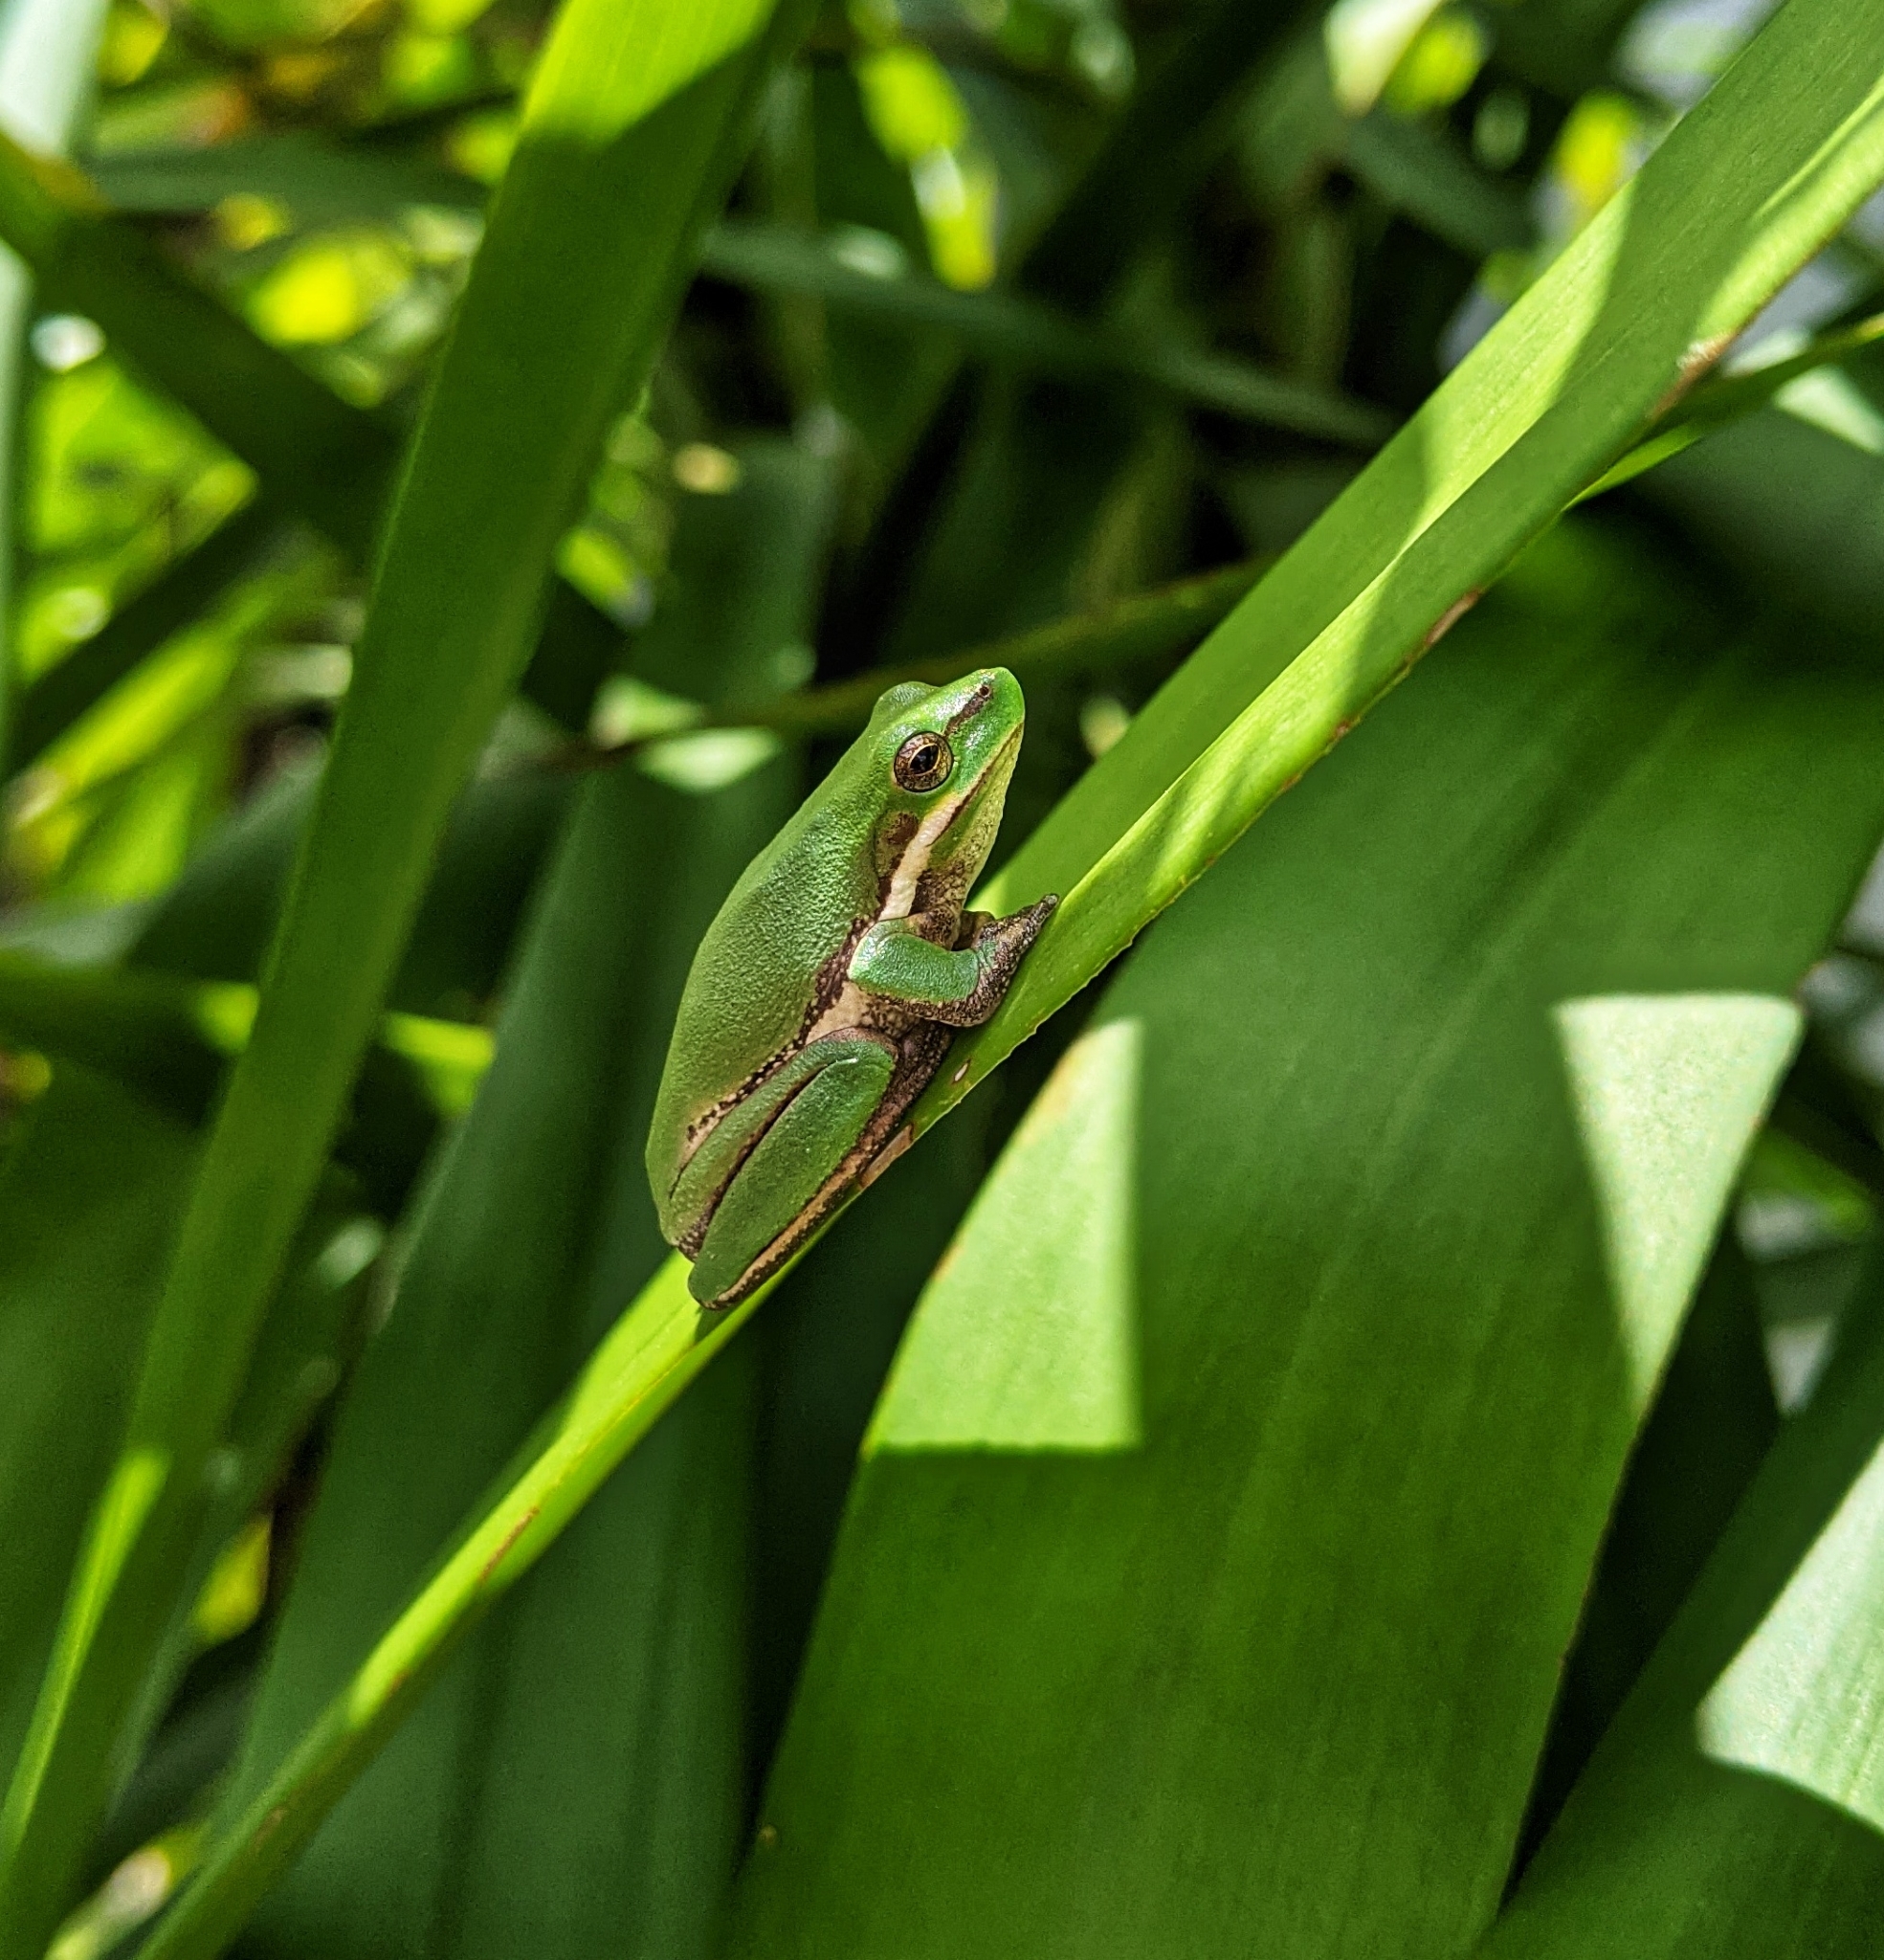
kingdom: Animalia
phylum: Chordata
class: Amphibia
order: Anura
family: Pelodryadidae
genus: Litoria
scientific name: Litoria fallax
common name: Eastern dwarf treefrog
